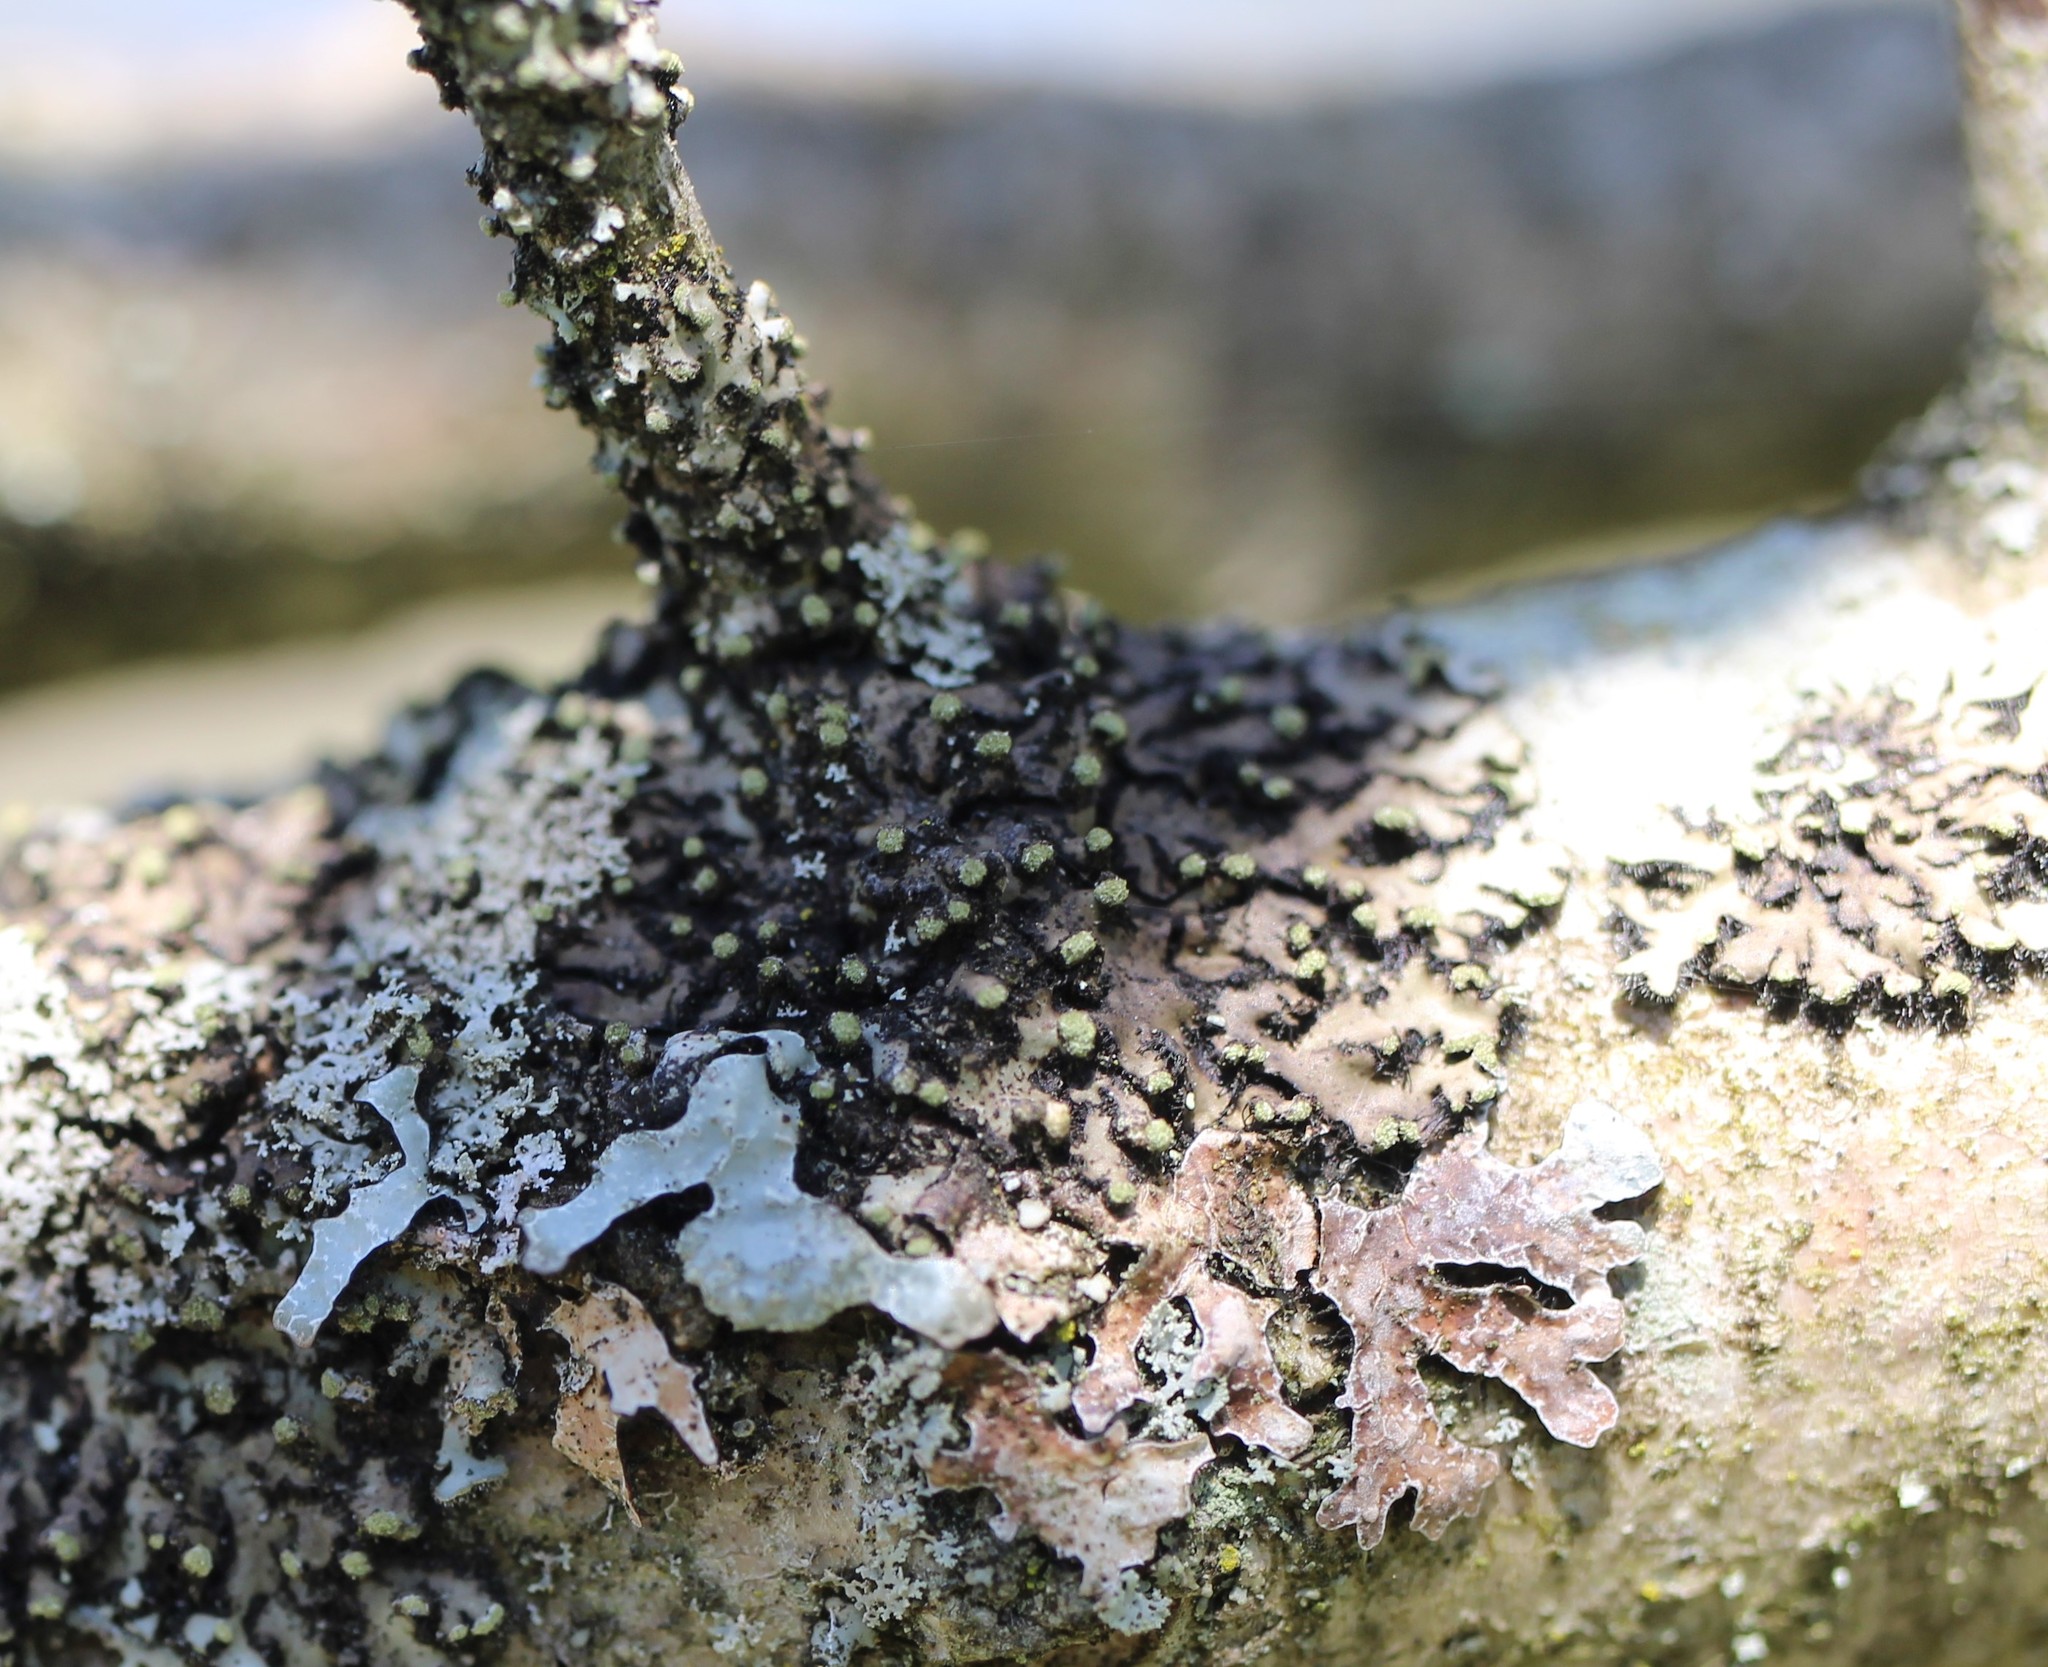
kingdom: Fungi
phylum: Ascomycota
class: Lecanoromycetes
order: Caliciales
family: Physciaceae
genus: Phaeophyscia
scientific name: Phaeophyscia rubropulchra
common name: Orange-cored shadow lichen
